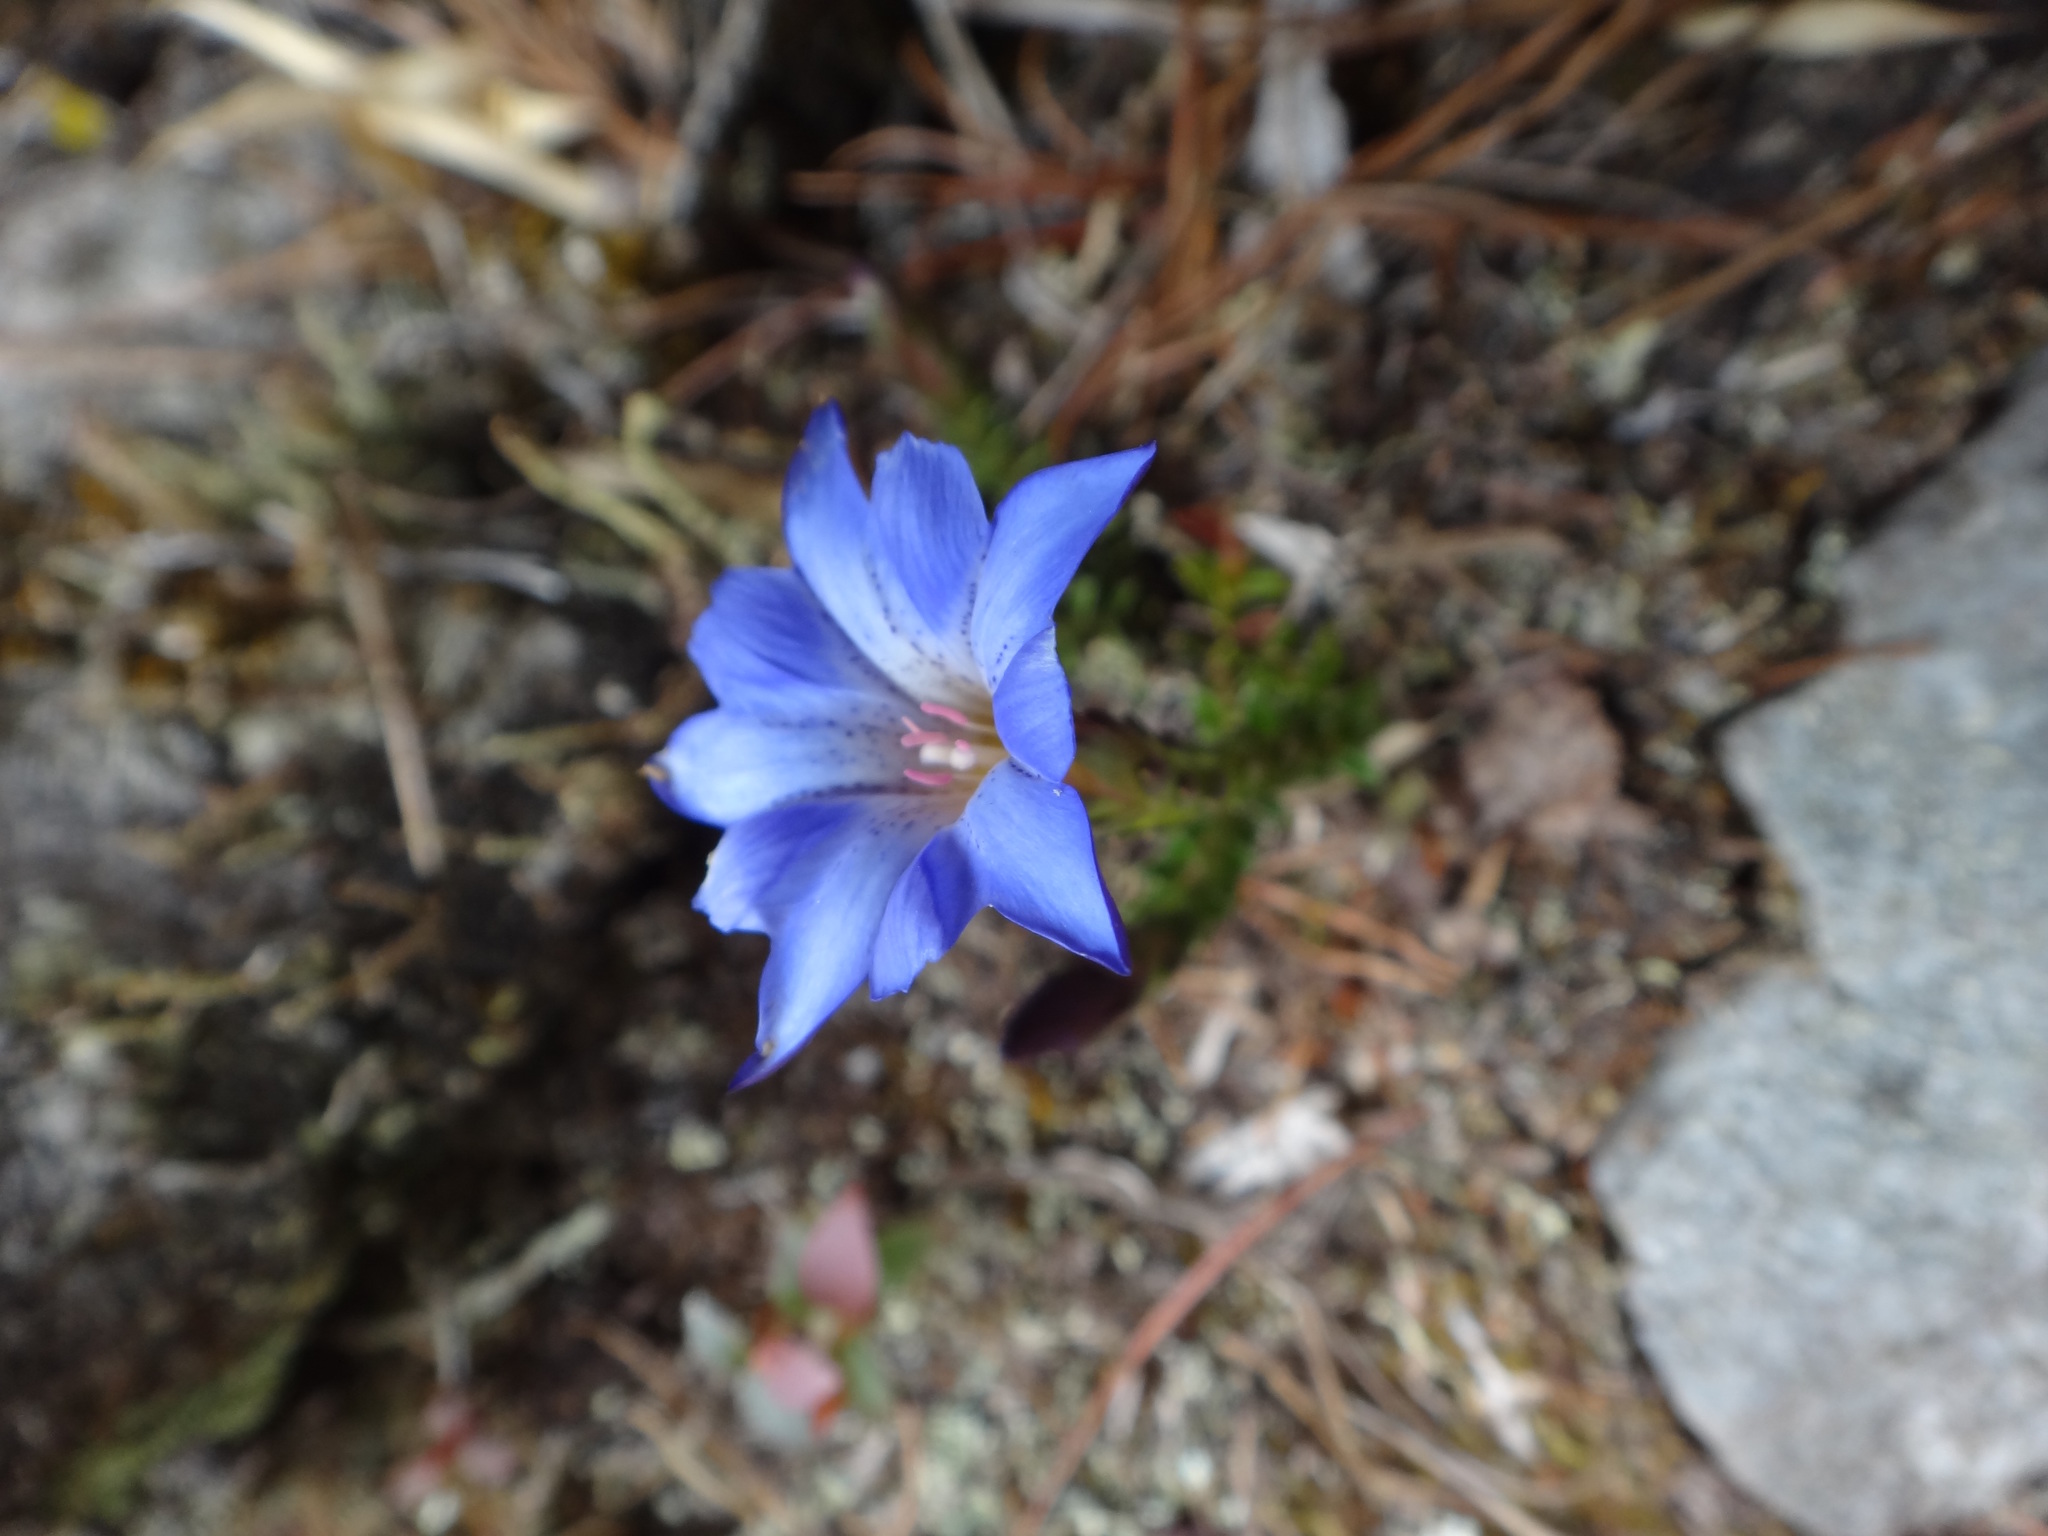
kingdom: Plantae
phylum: Tracheophyta
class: Magnoliopsida
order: Gentianales
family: Gentianaceae
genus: Gentiana
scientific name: Gentiana arisanensis
